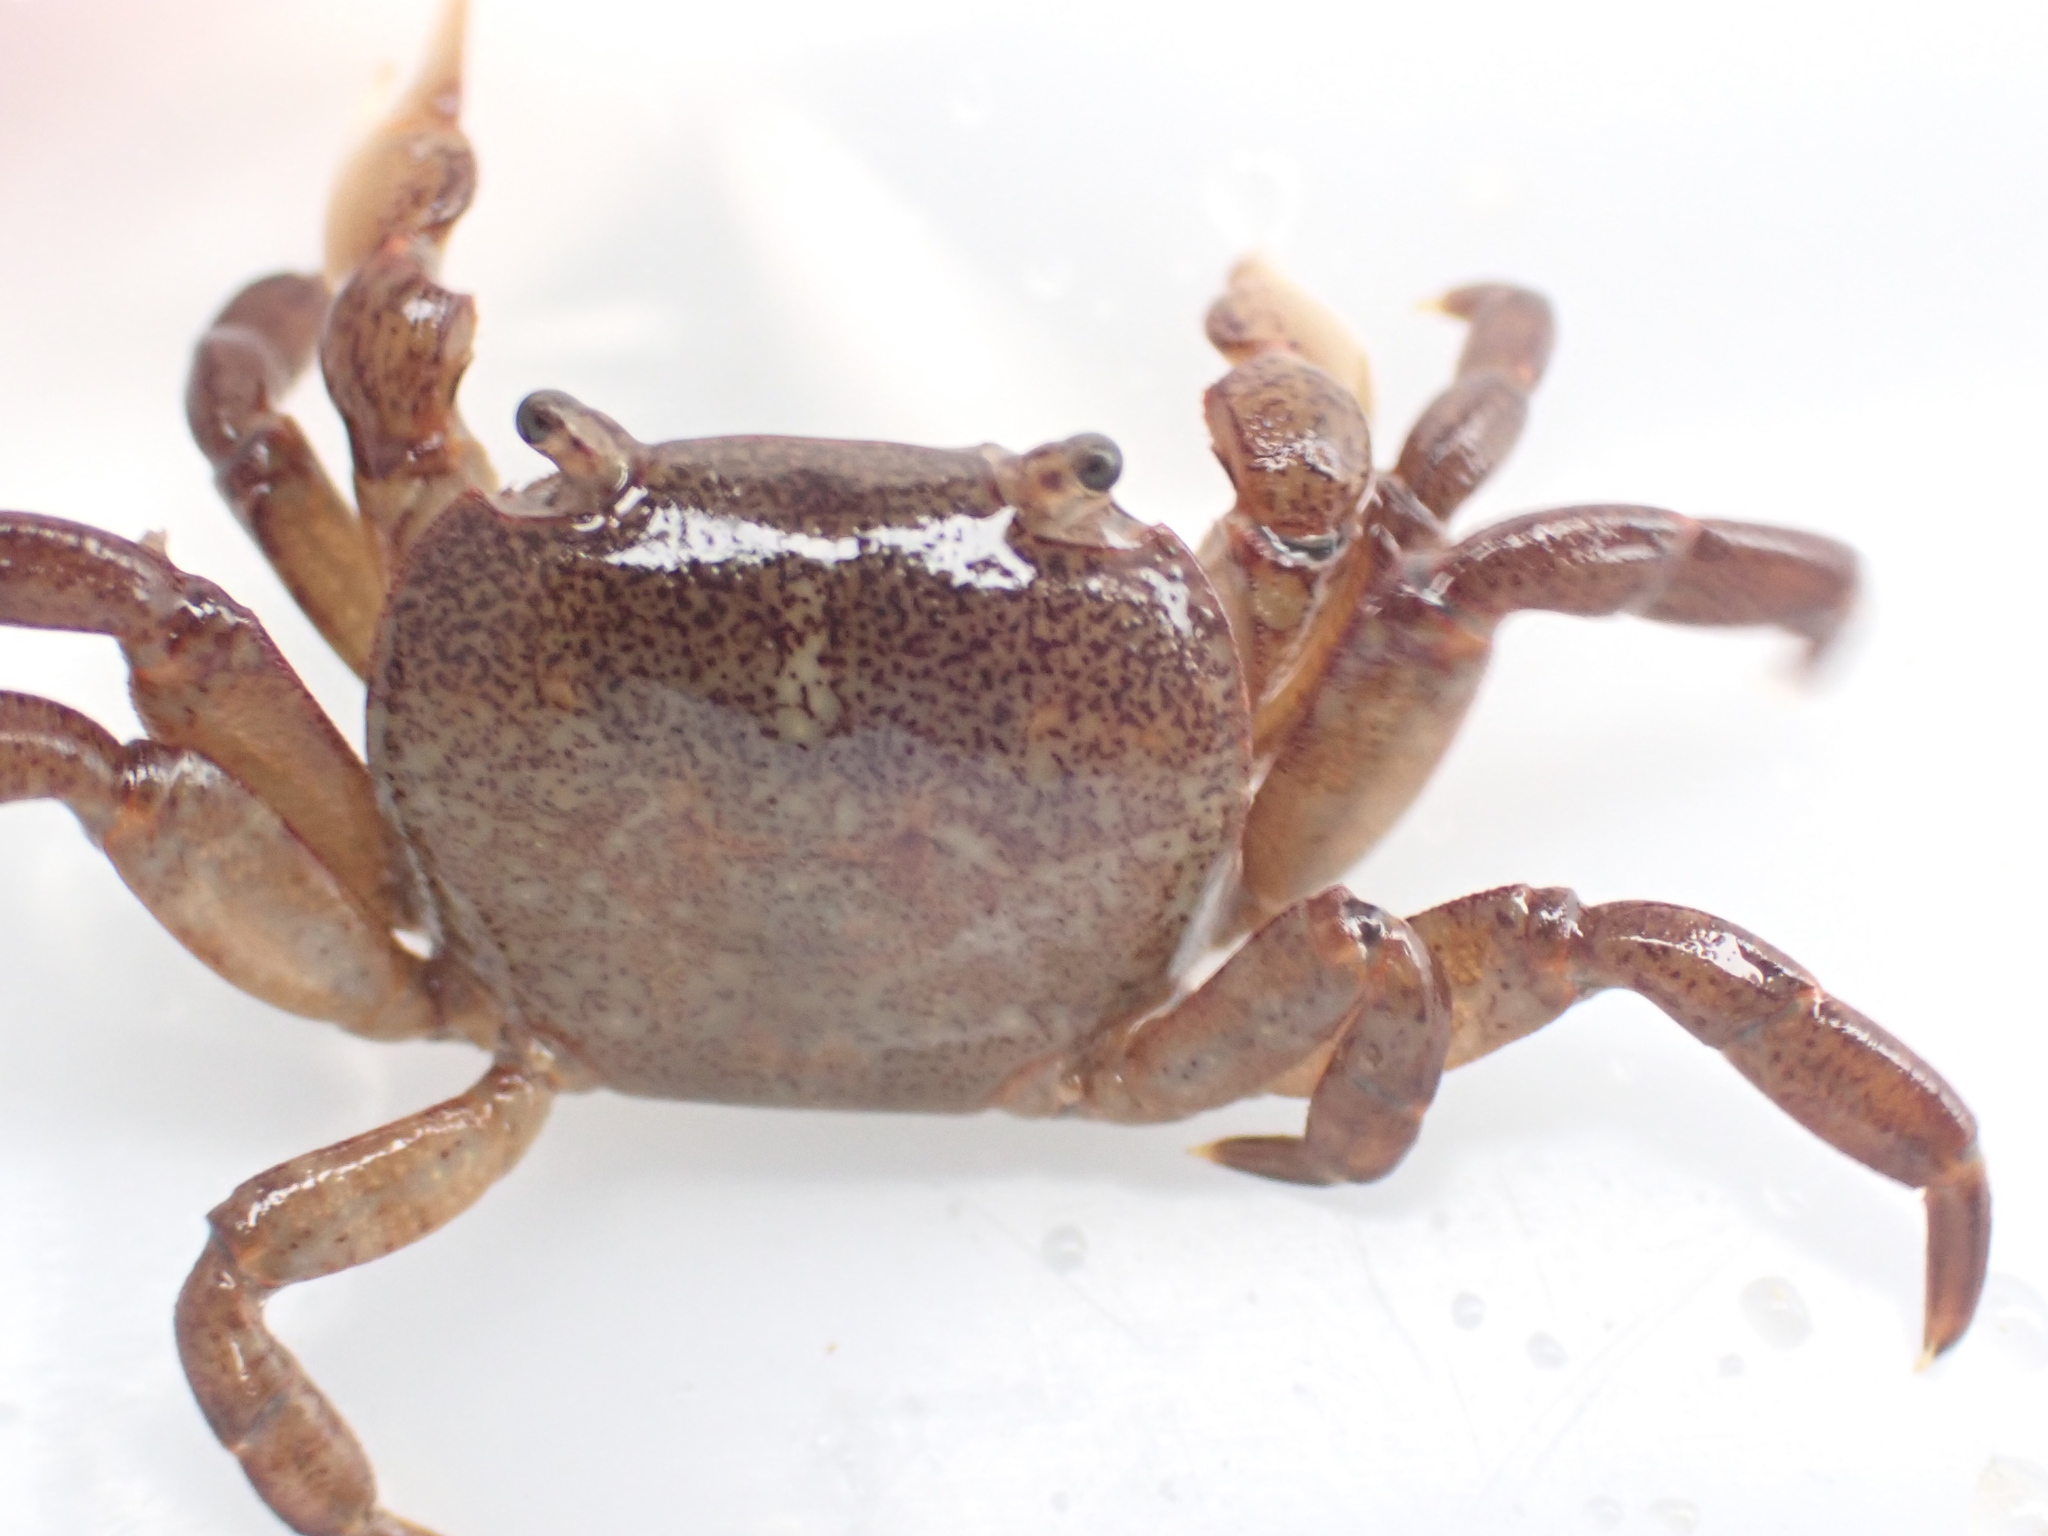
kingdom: Animalia
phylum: Arthropoda
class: Malacostraca
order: Decapoda
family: Varunidae
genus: Cyclograpsus
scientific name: Cyclograpsus lavauxi
